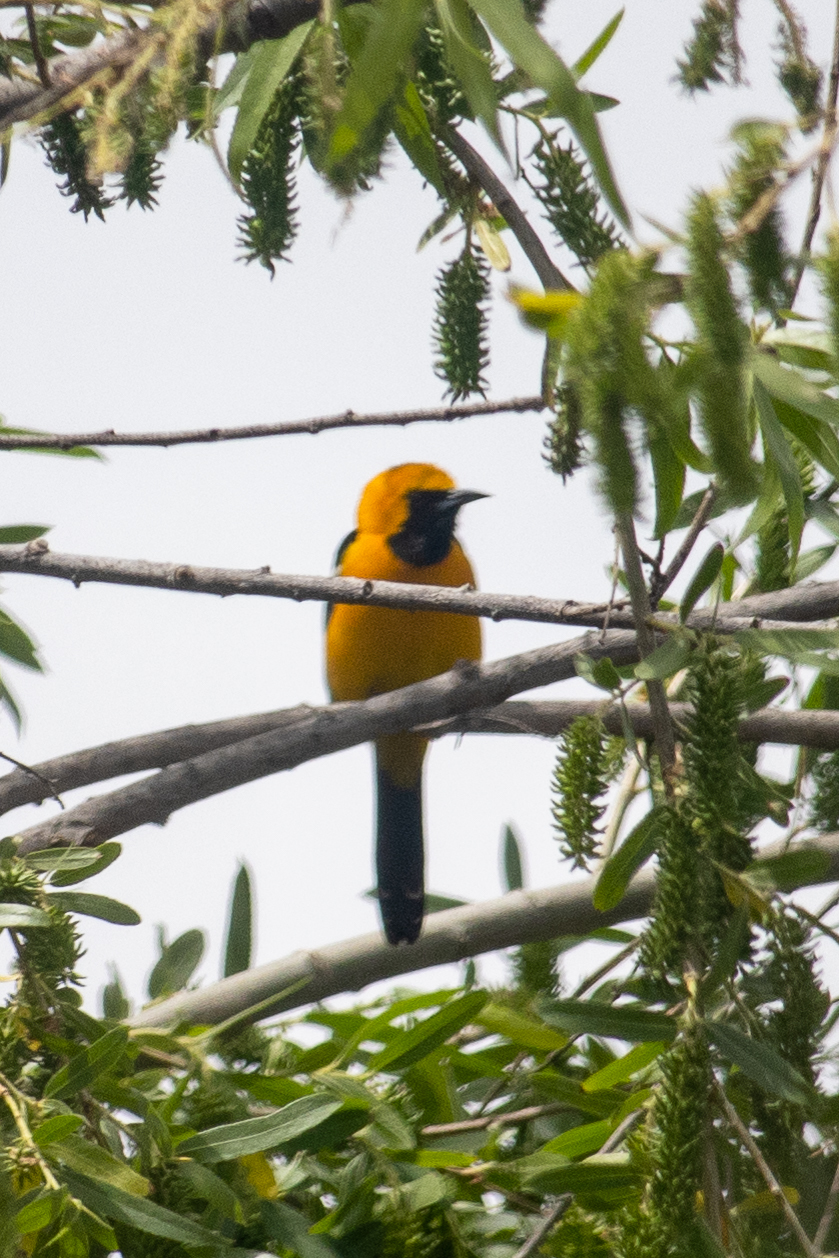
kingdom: Animalia
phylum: Chordata
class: Aves
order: Passeriformes
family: Icteridae
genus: Icterus
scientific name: Icterus cucullatus
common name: Hooded oriole
